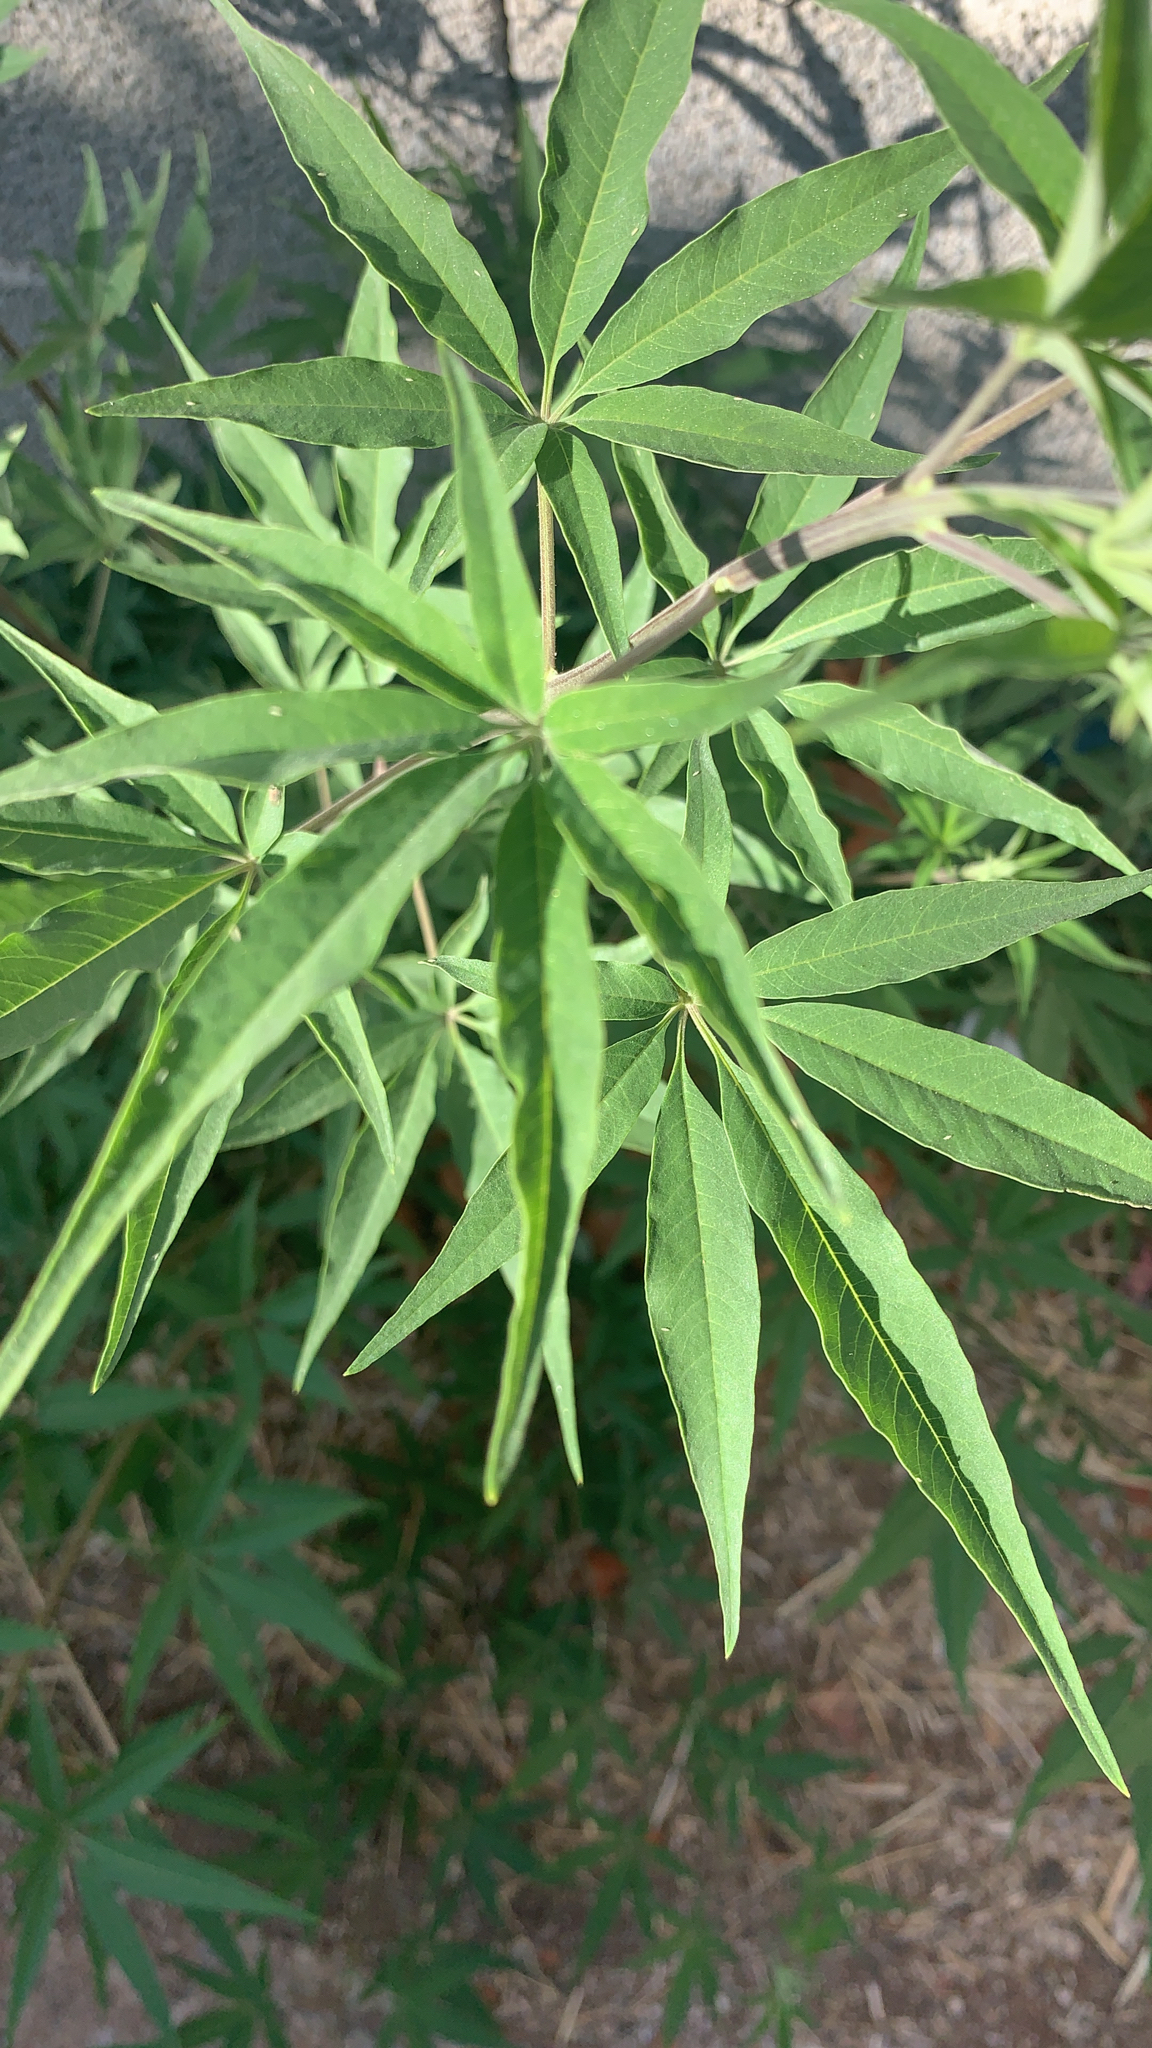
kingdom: Plantae
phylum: Tracheophyta
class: Magnoliopsida
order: Lamiales
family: Lamiaceae
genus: Vitex
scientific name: Vitex agnus-castus
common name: Chasteberry
